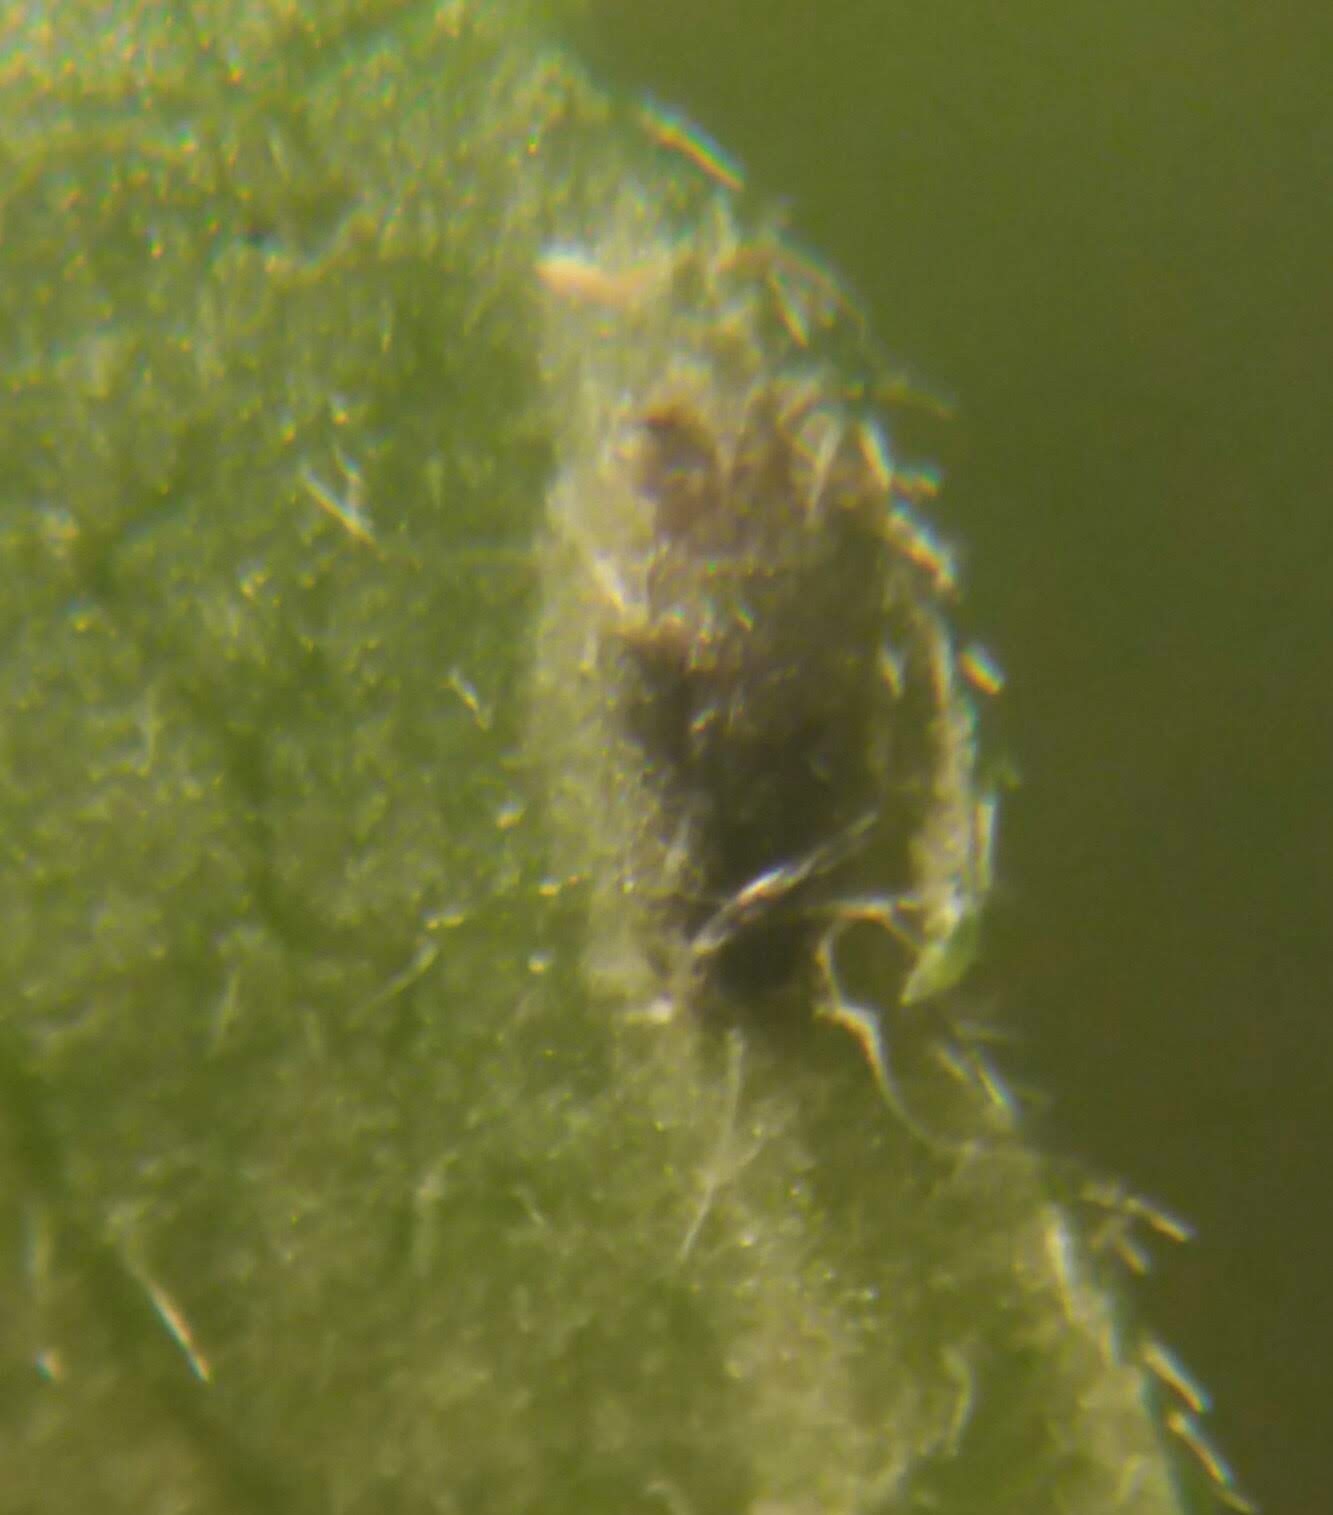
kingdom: Animalia
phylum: Arthropoda
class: Insecta
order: Diptera
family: Agromyzidae
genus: Ophiomyia
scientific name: Ophiomyia carolinensis
